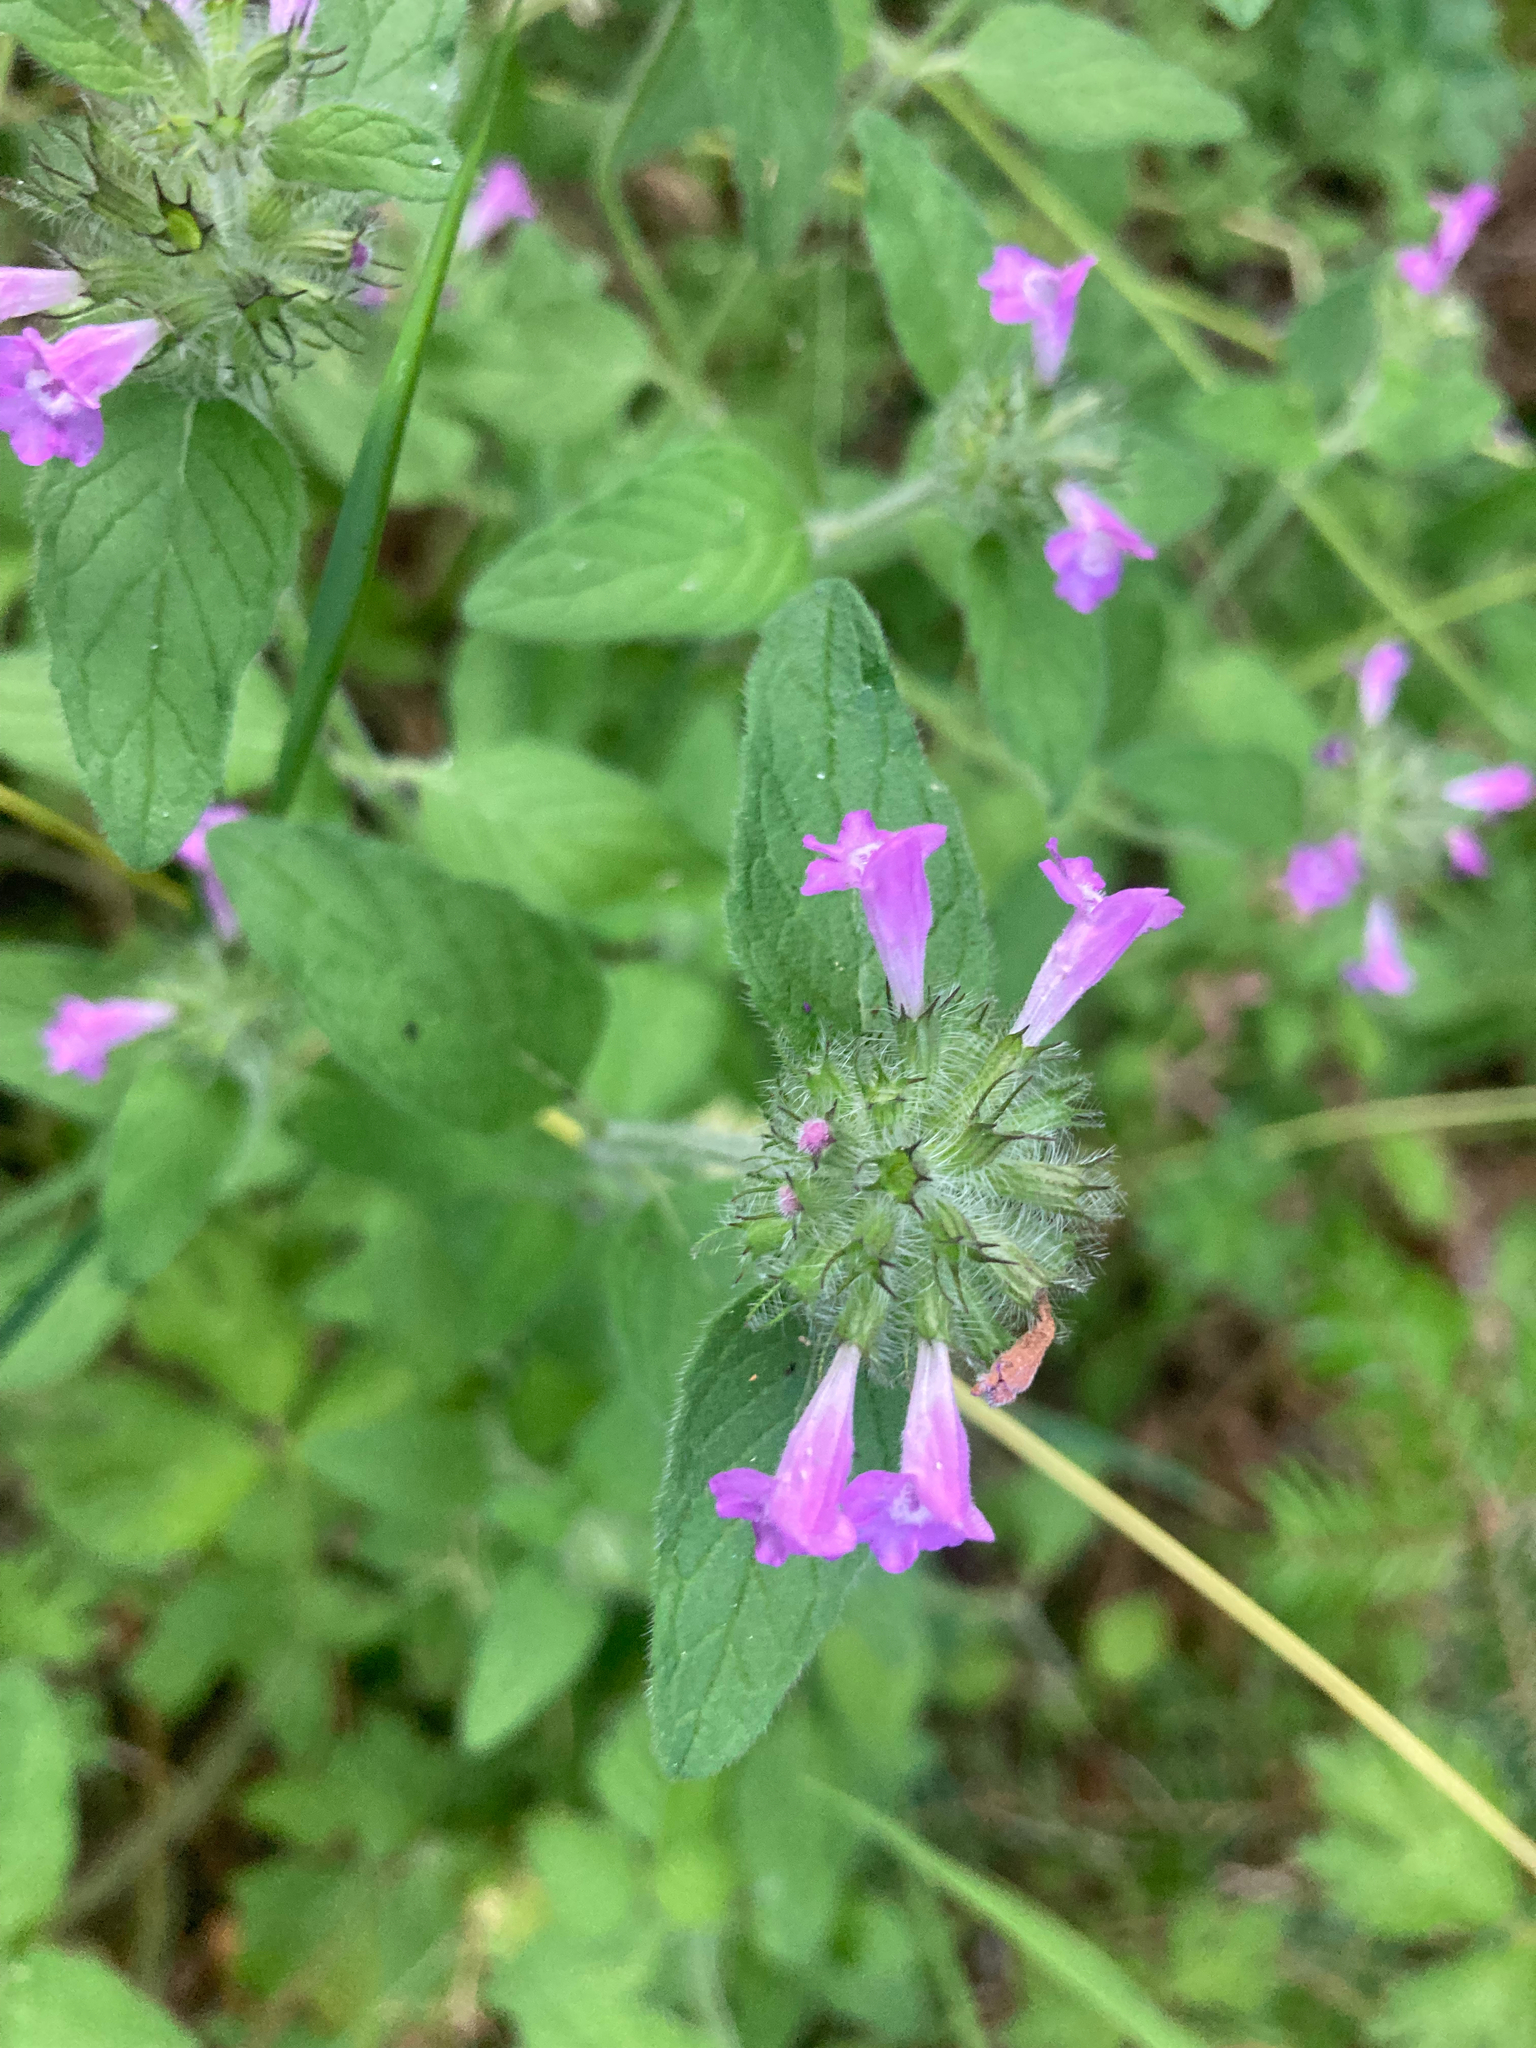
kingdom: Plantae
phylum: Tracheophyta
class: Magnoliopsida
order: Lamiales
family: Lamiaceae
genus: Clinopodium
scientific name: Clinopodium vulgare
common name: Wild basil
